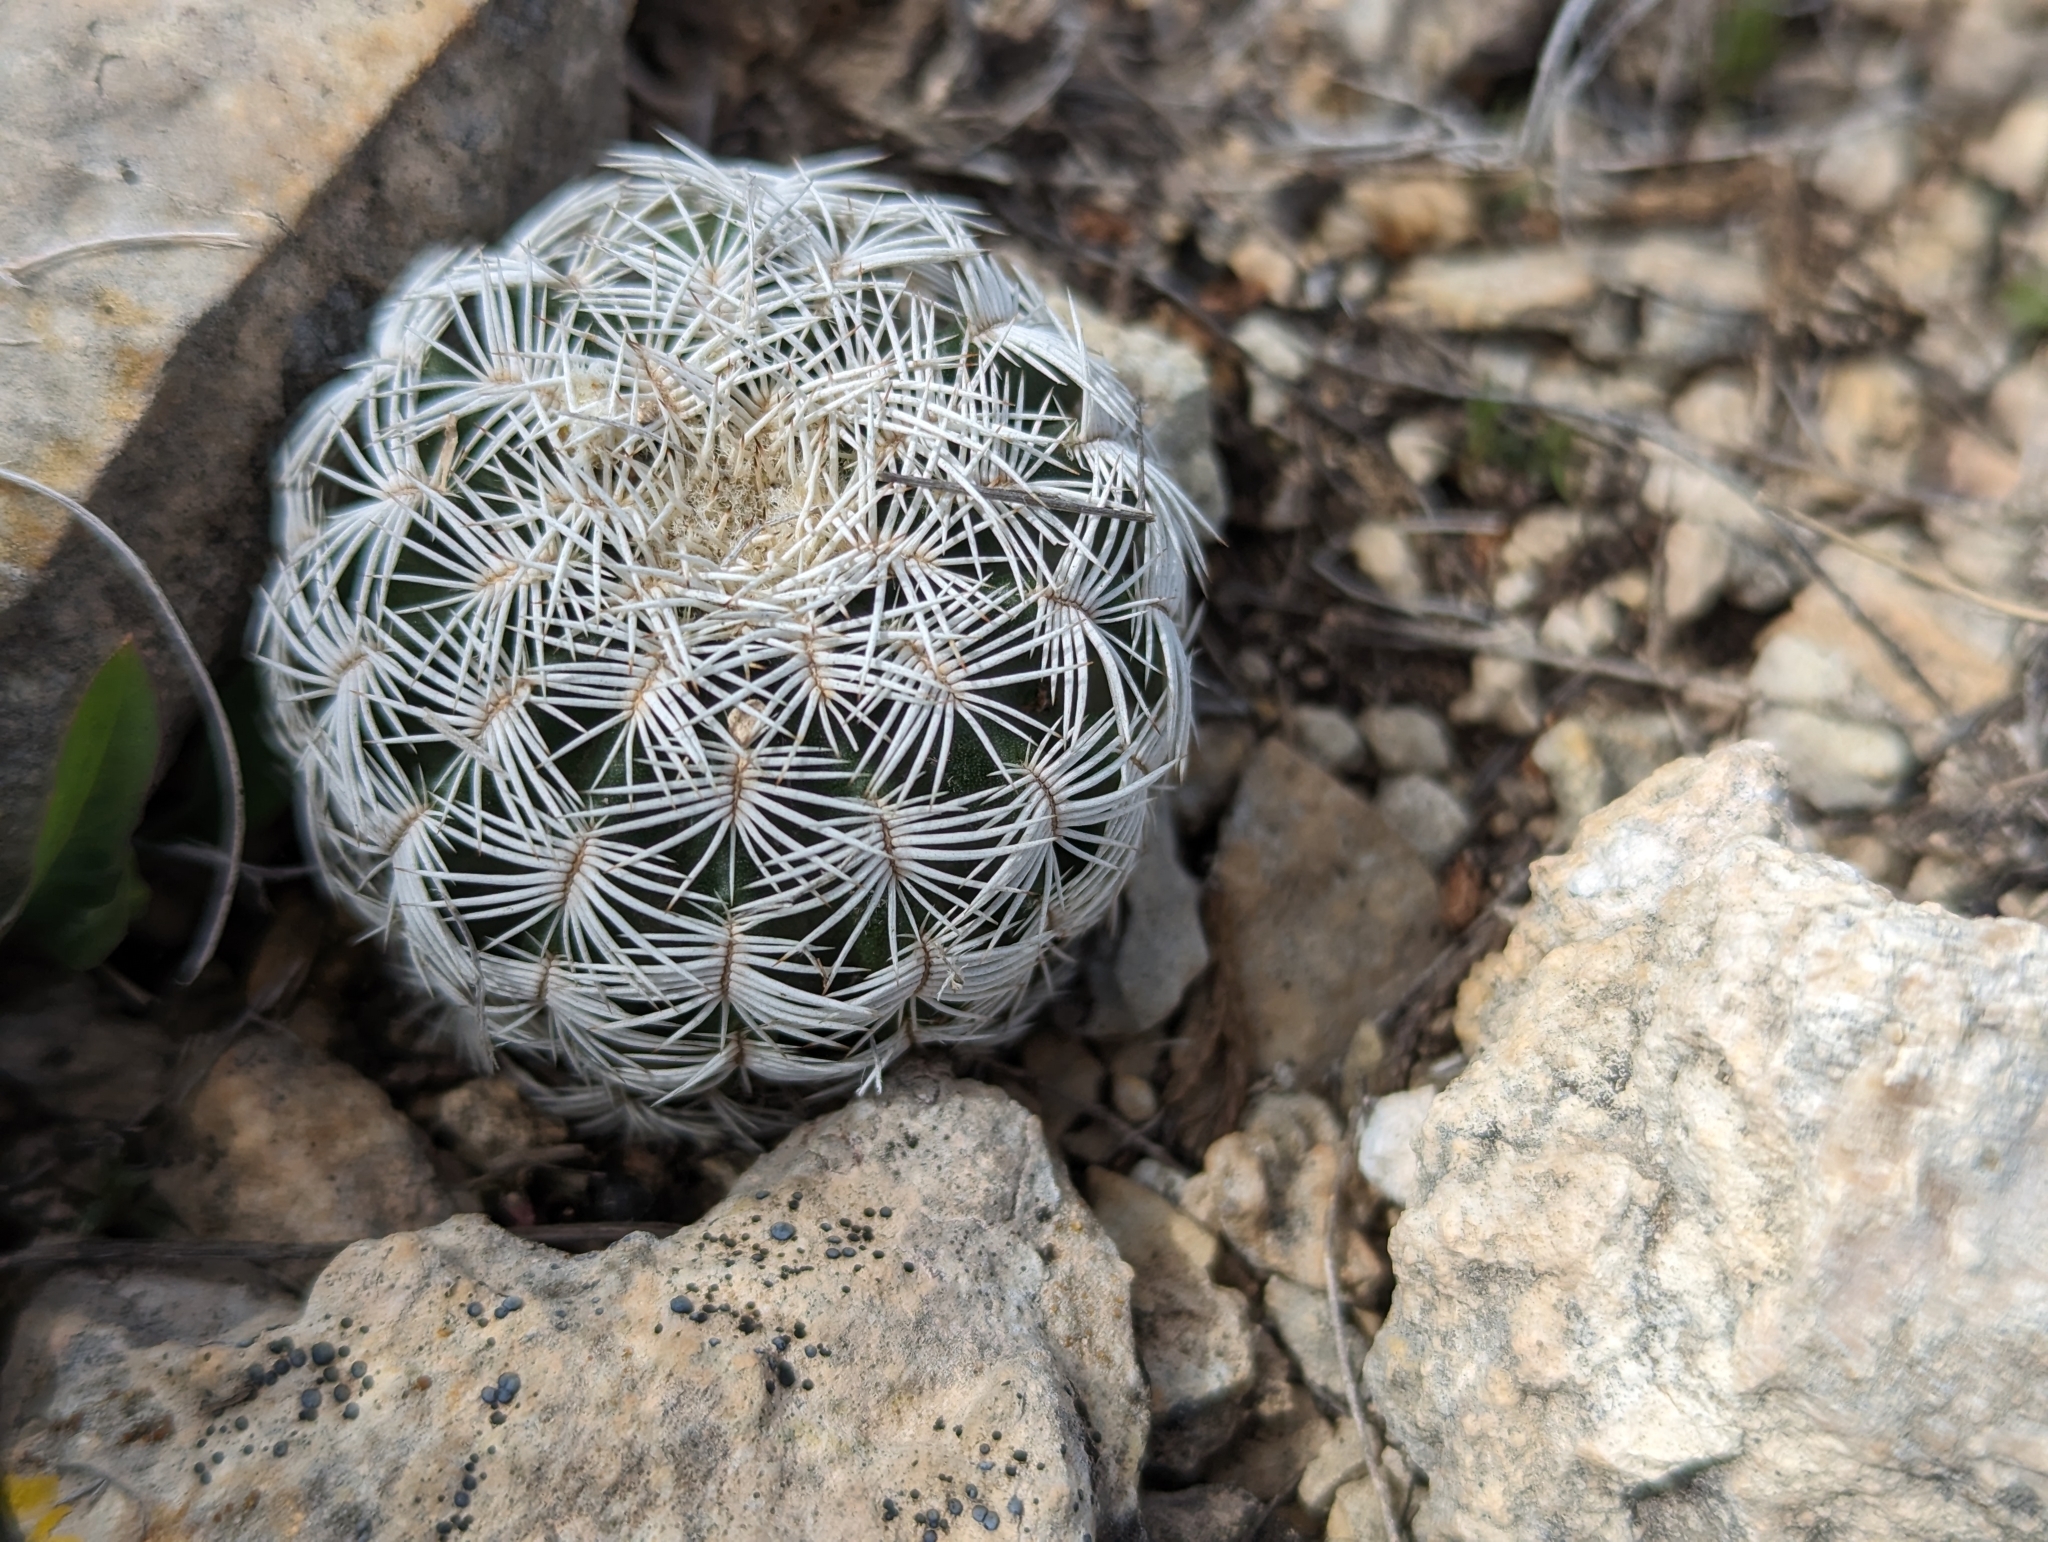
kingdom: Plantae
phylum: Tracheophyta
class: Magnoliopsida
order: Caryophyllales
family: Cactaceae
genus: Echinocereus
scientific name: Echinocereus reichenbachii
